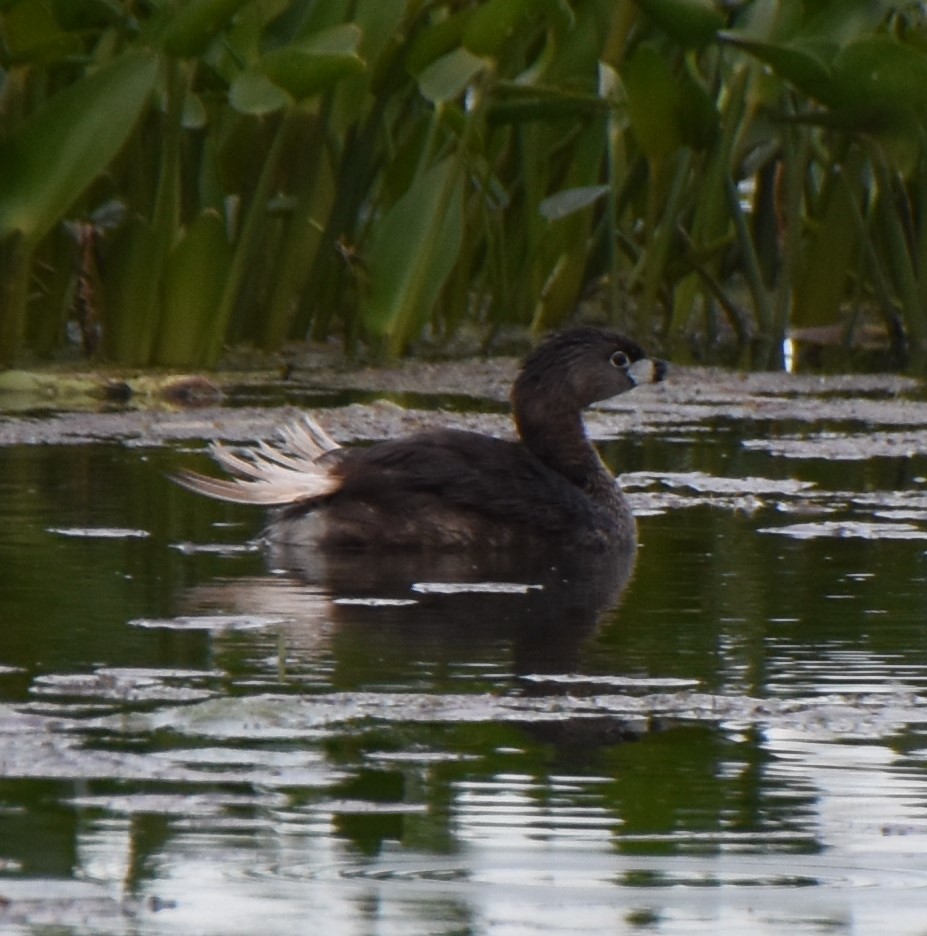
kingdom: Animalia
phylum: Chordata
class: Aves
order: Podicipediformes
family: Podicipedidae
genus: Podilymbus
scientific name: Podilymbus podiceps
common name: Pied-billed grebe
